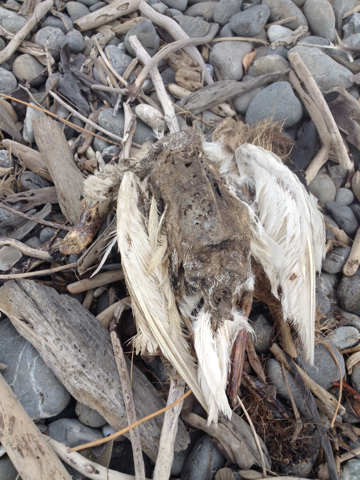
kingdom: Animalia
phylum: Chordata
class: Aves
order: Anseriformes
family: Anatidae
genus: Anas
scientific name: Anas platyrhynchos
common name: Mallard
